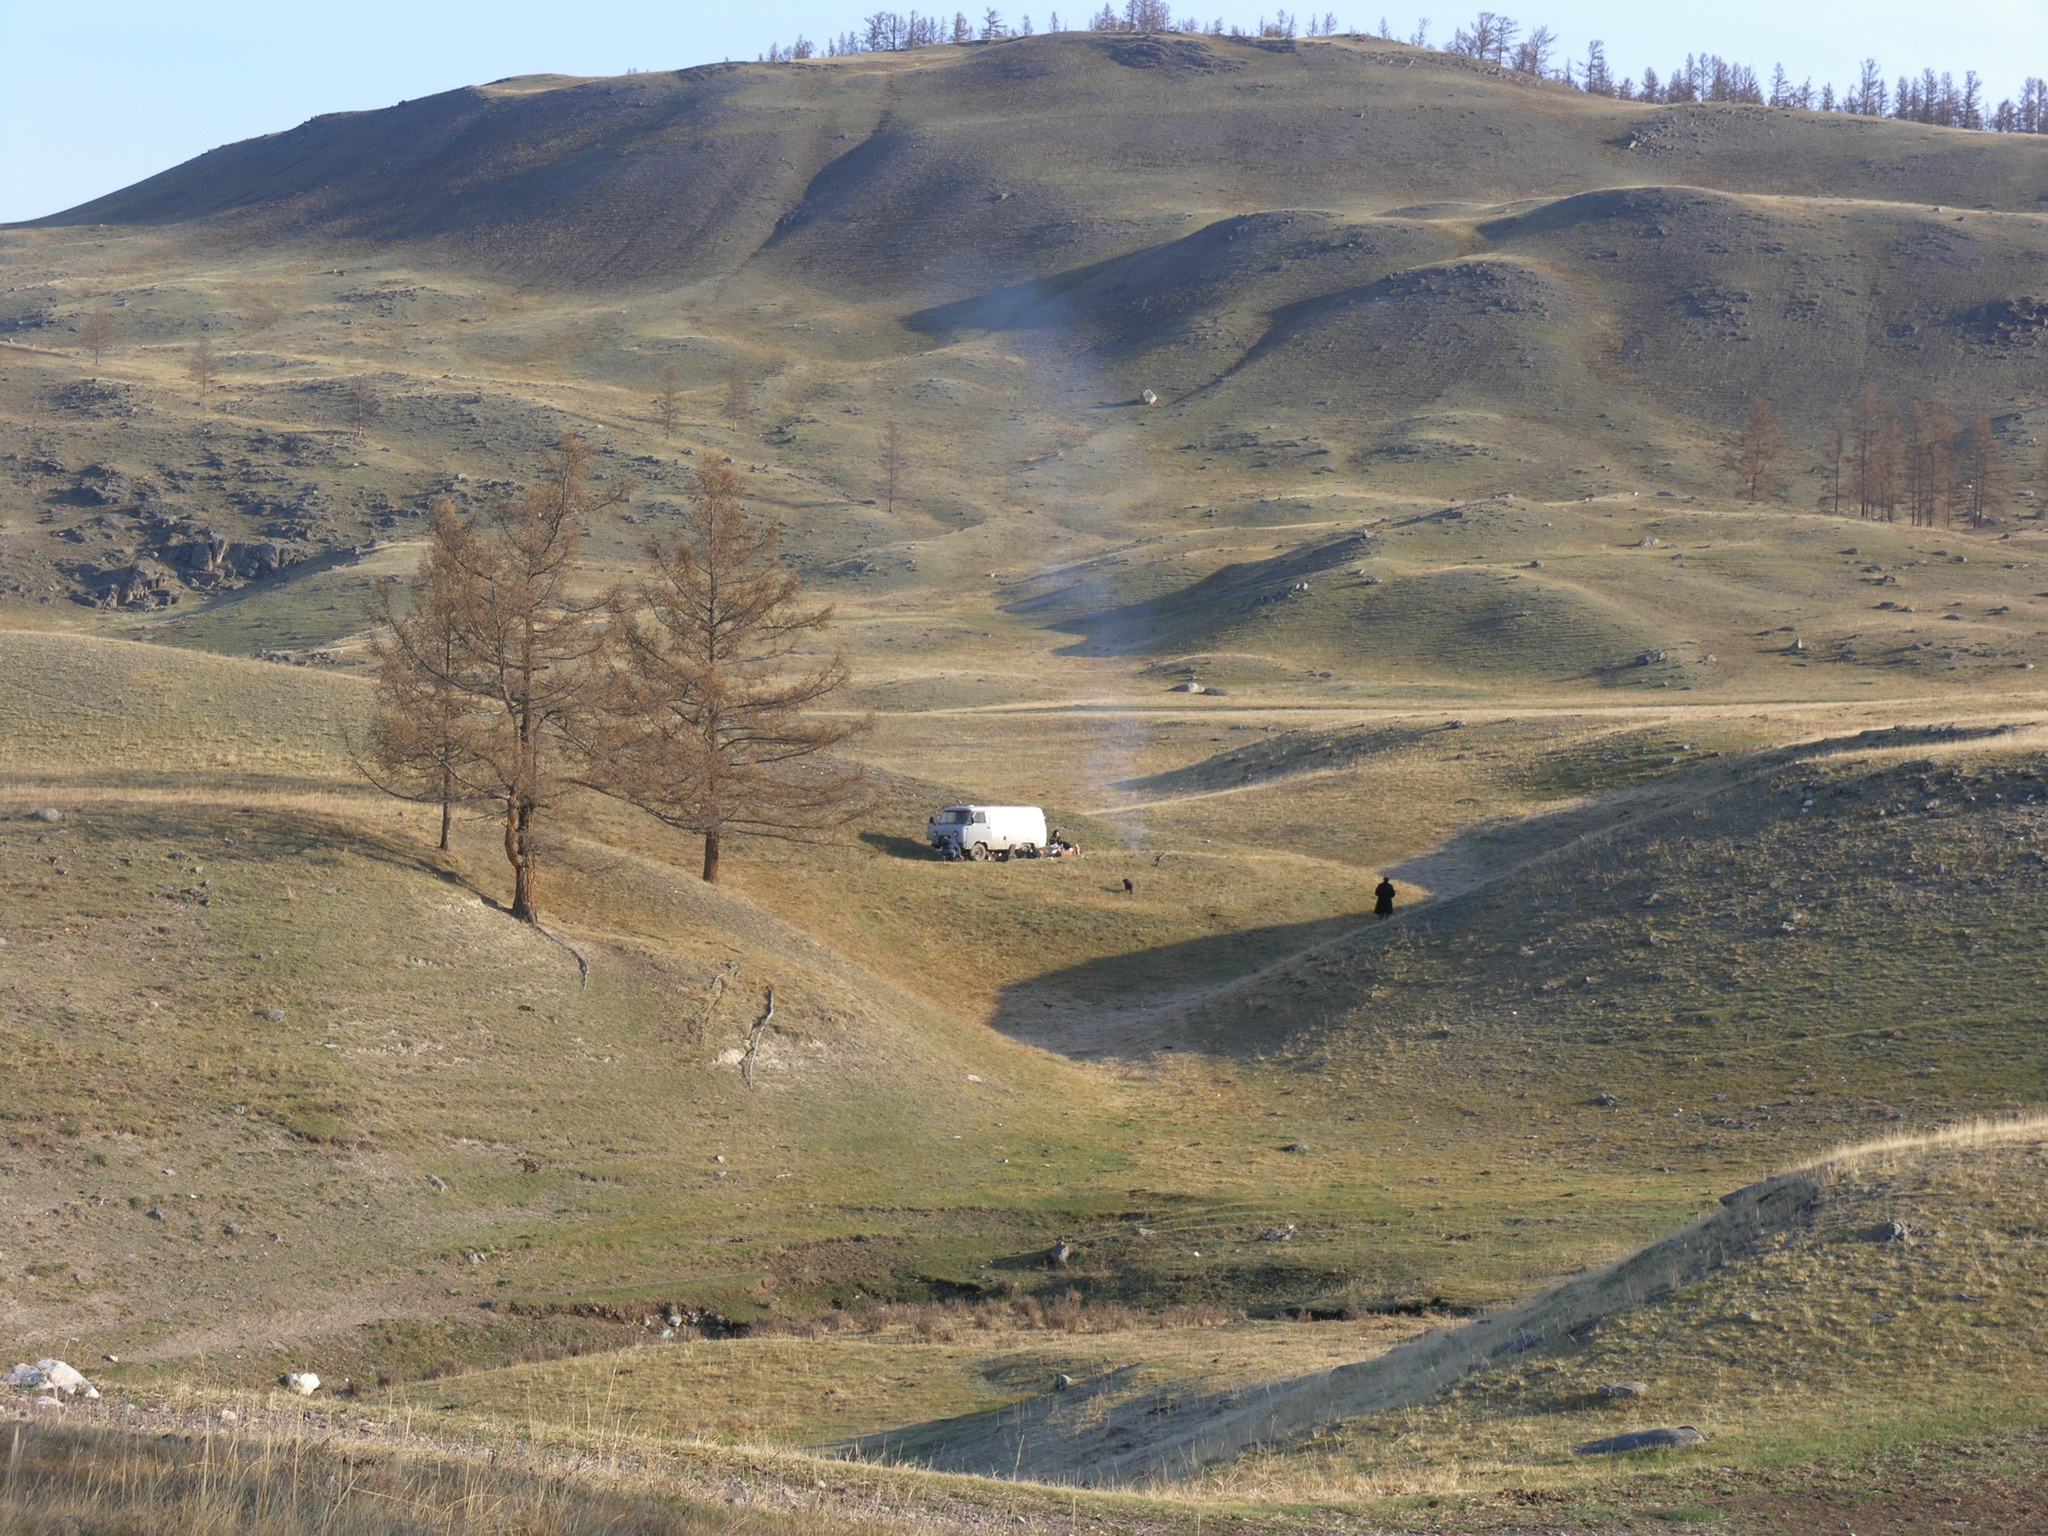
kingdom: Plantae
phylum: Tracheophyta
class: Pinopsida
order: Pinales
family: Pinaceae
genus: Larix
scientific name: Larix sibirica
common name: Siberian larch
